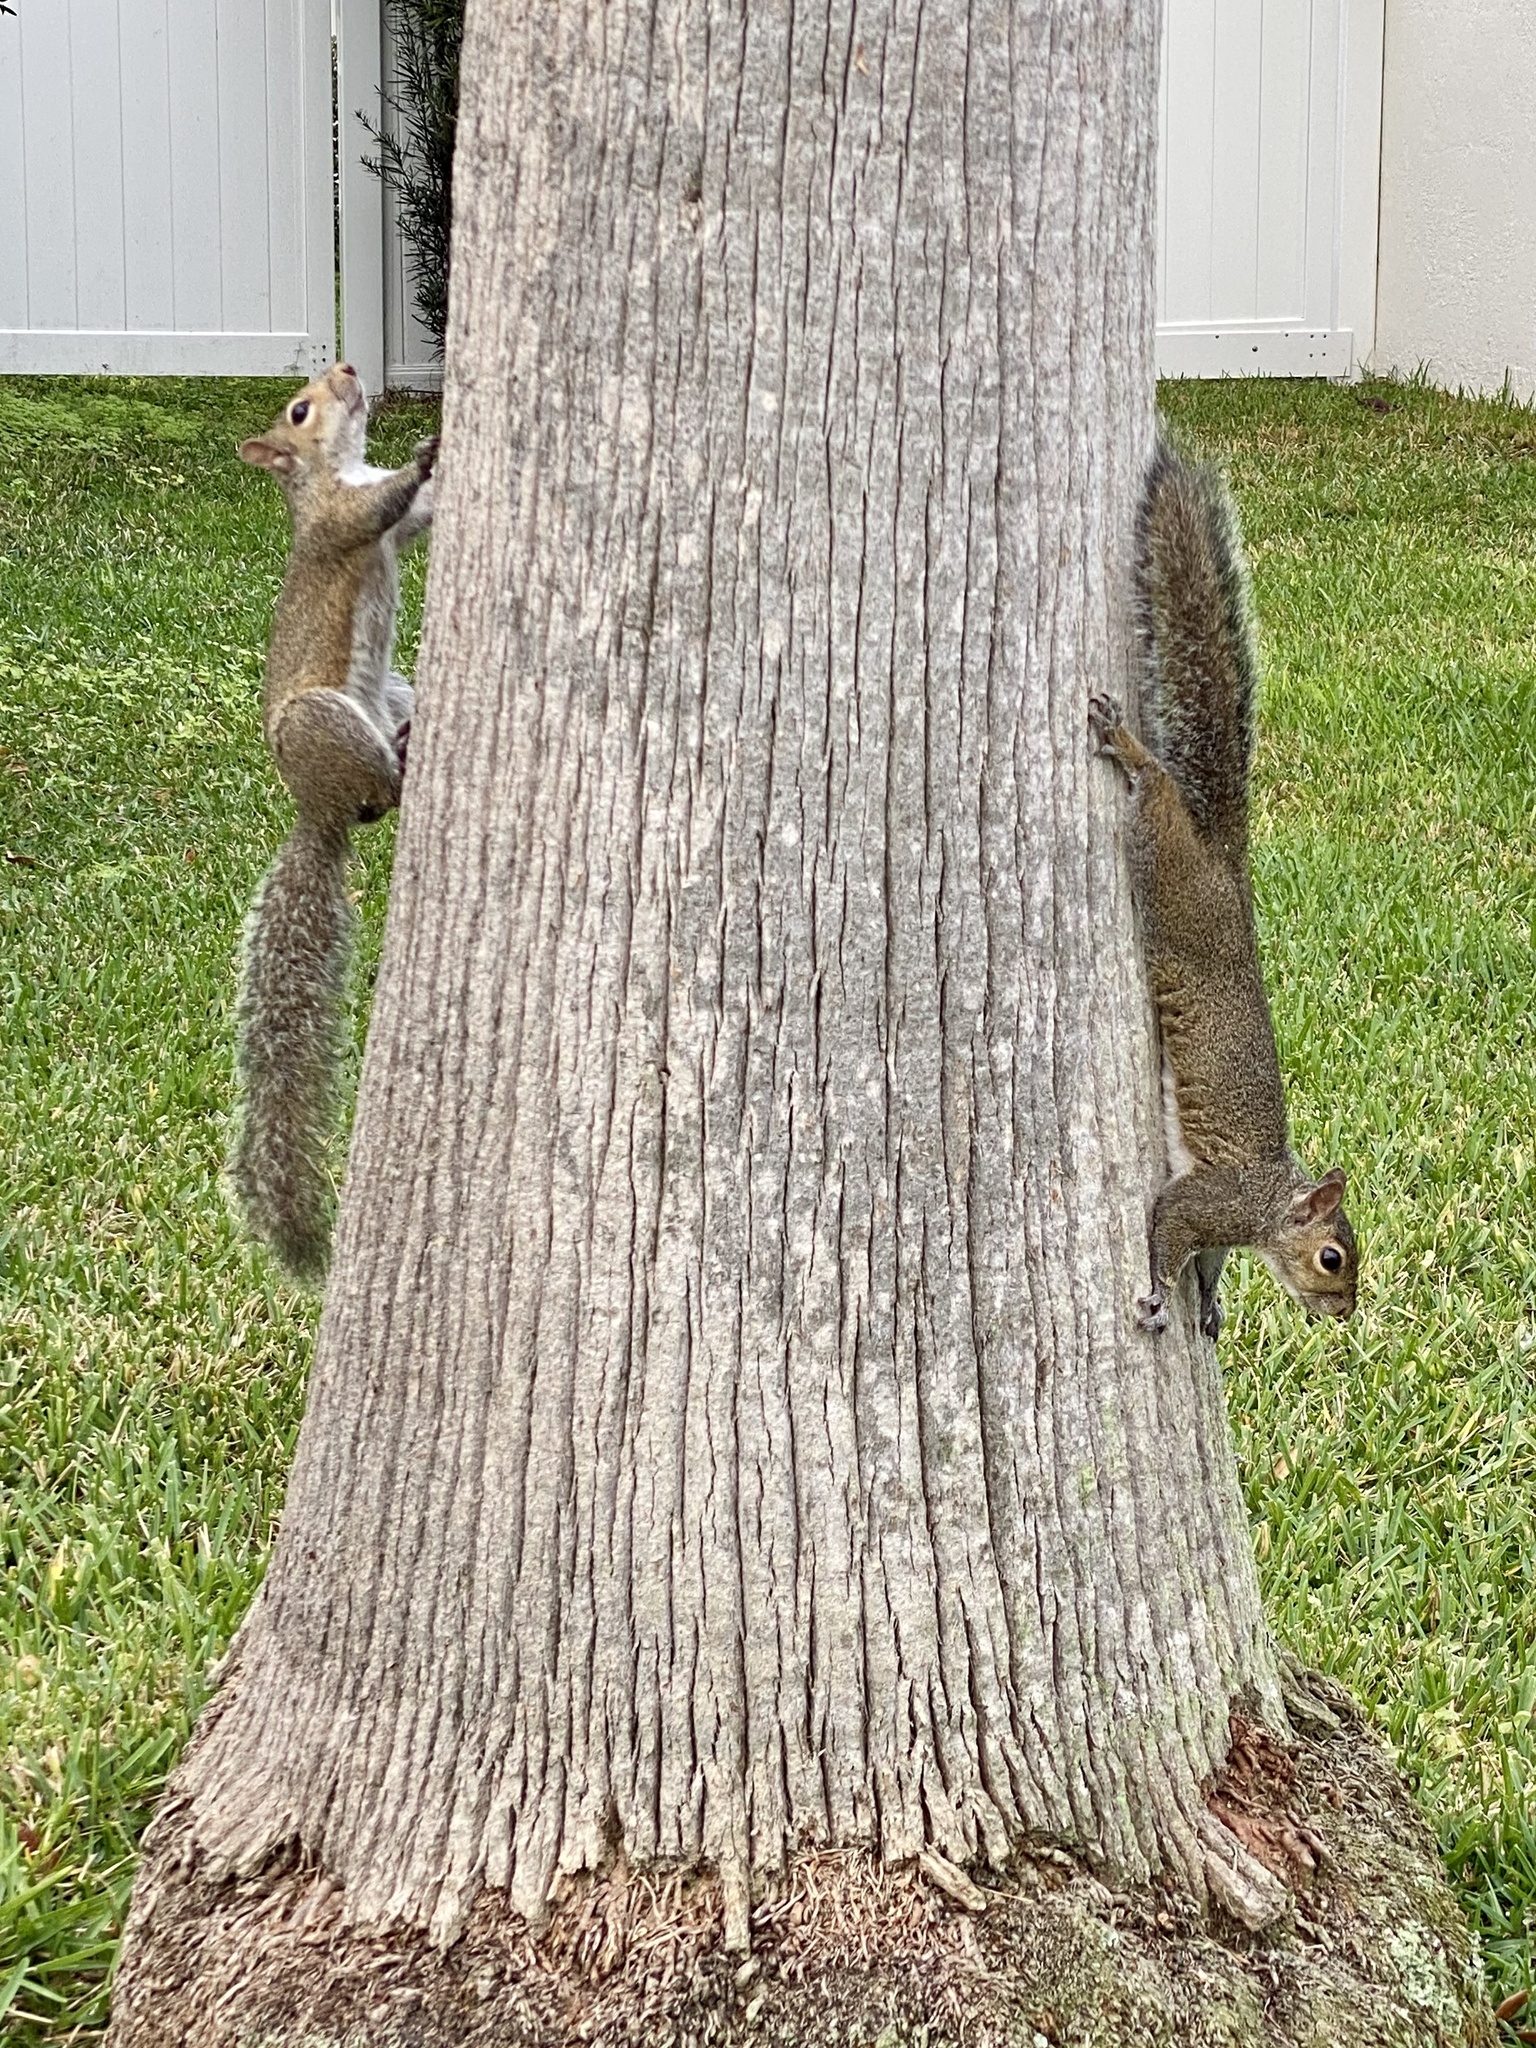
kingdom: Animalia
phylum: Chordata
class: Mammalia
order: Rodentia
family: Sciuridae
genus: Sciurus
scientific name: Sciurus carolinensis
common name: Eastern gray squirrel
